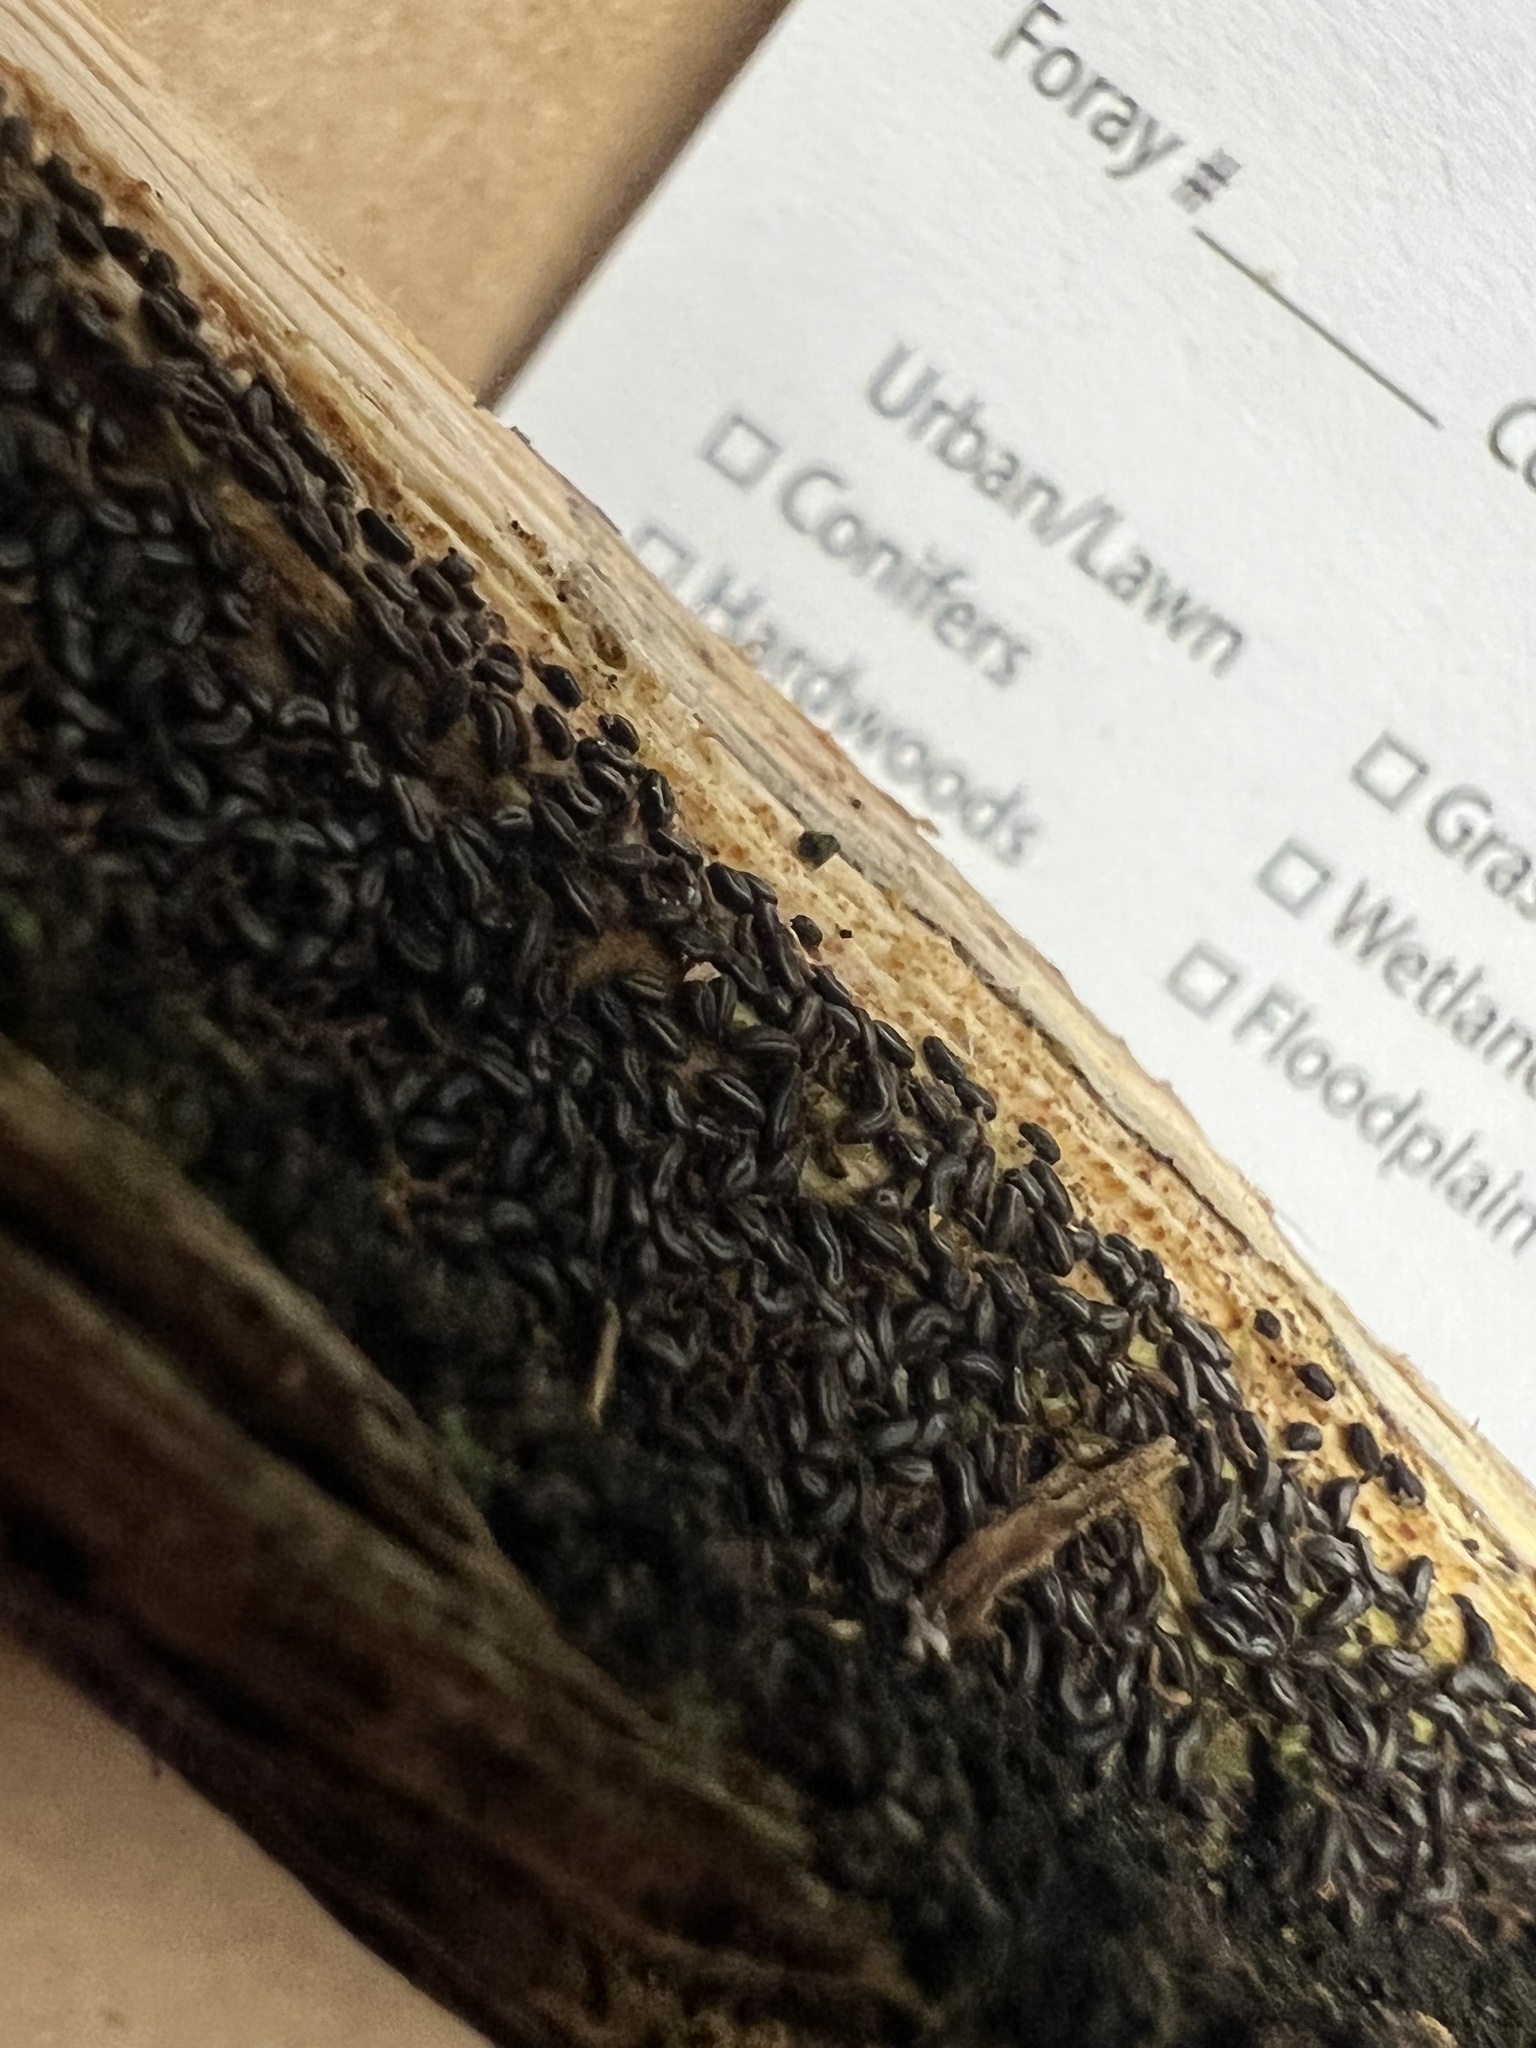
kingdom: Fungi
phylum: Ascomycota
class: Leotiomycetes
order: Helotiales
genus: Angelina
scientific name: Angelina rufescens
